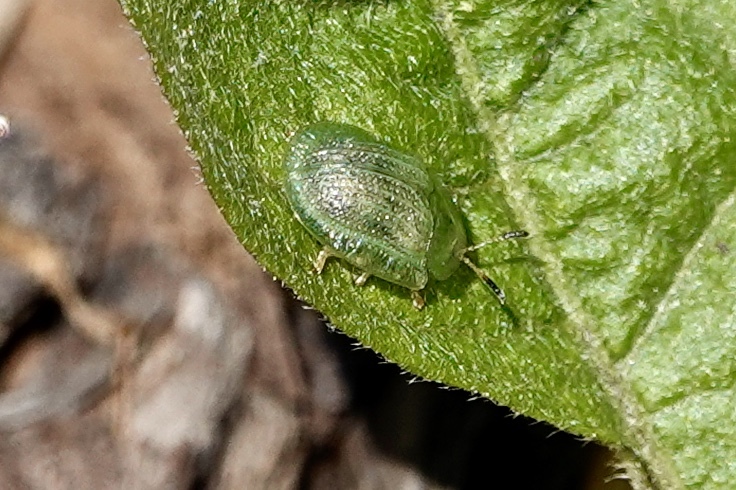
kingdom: Animalia
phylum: Arthropoda
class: Insecta
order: Coleoptera
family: Chrysomelidae
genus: Gratiana
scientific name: Gratiana pallidula
